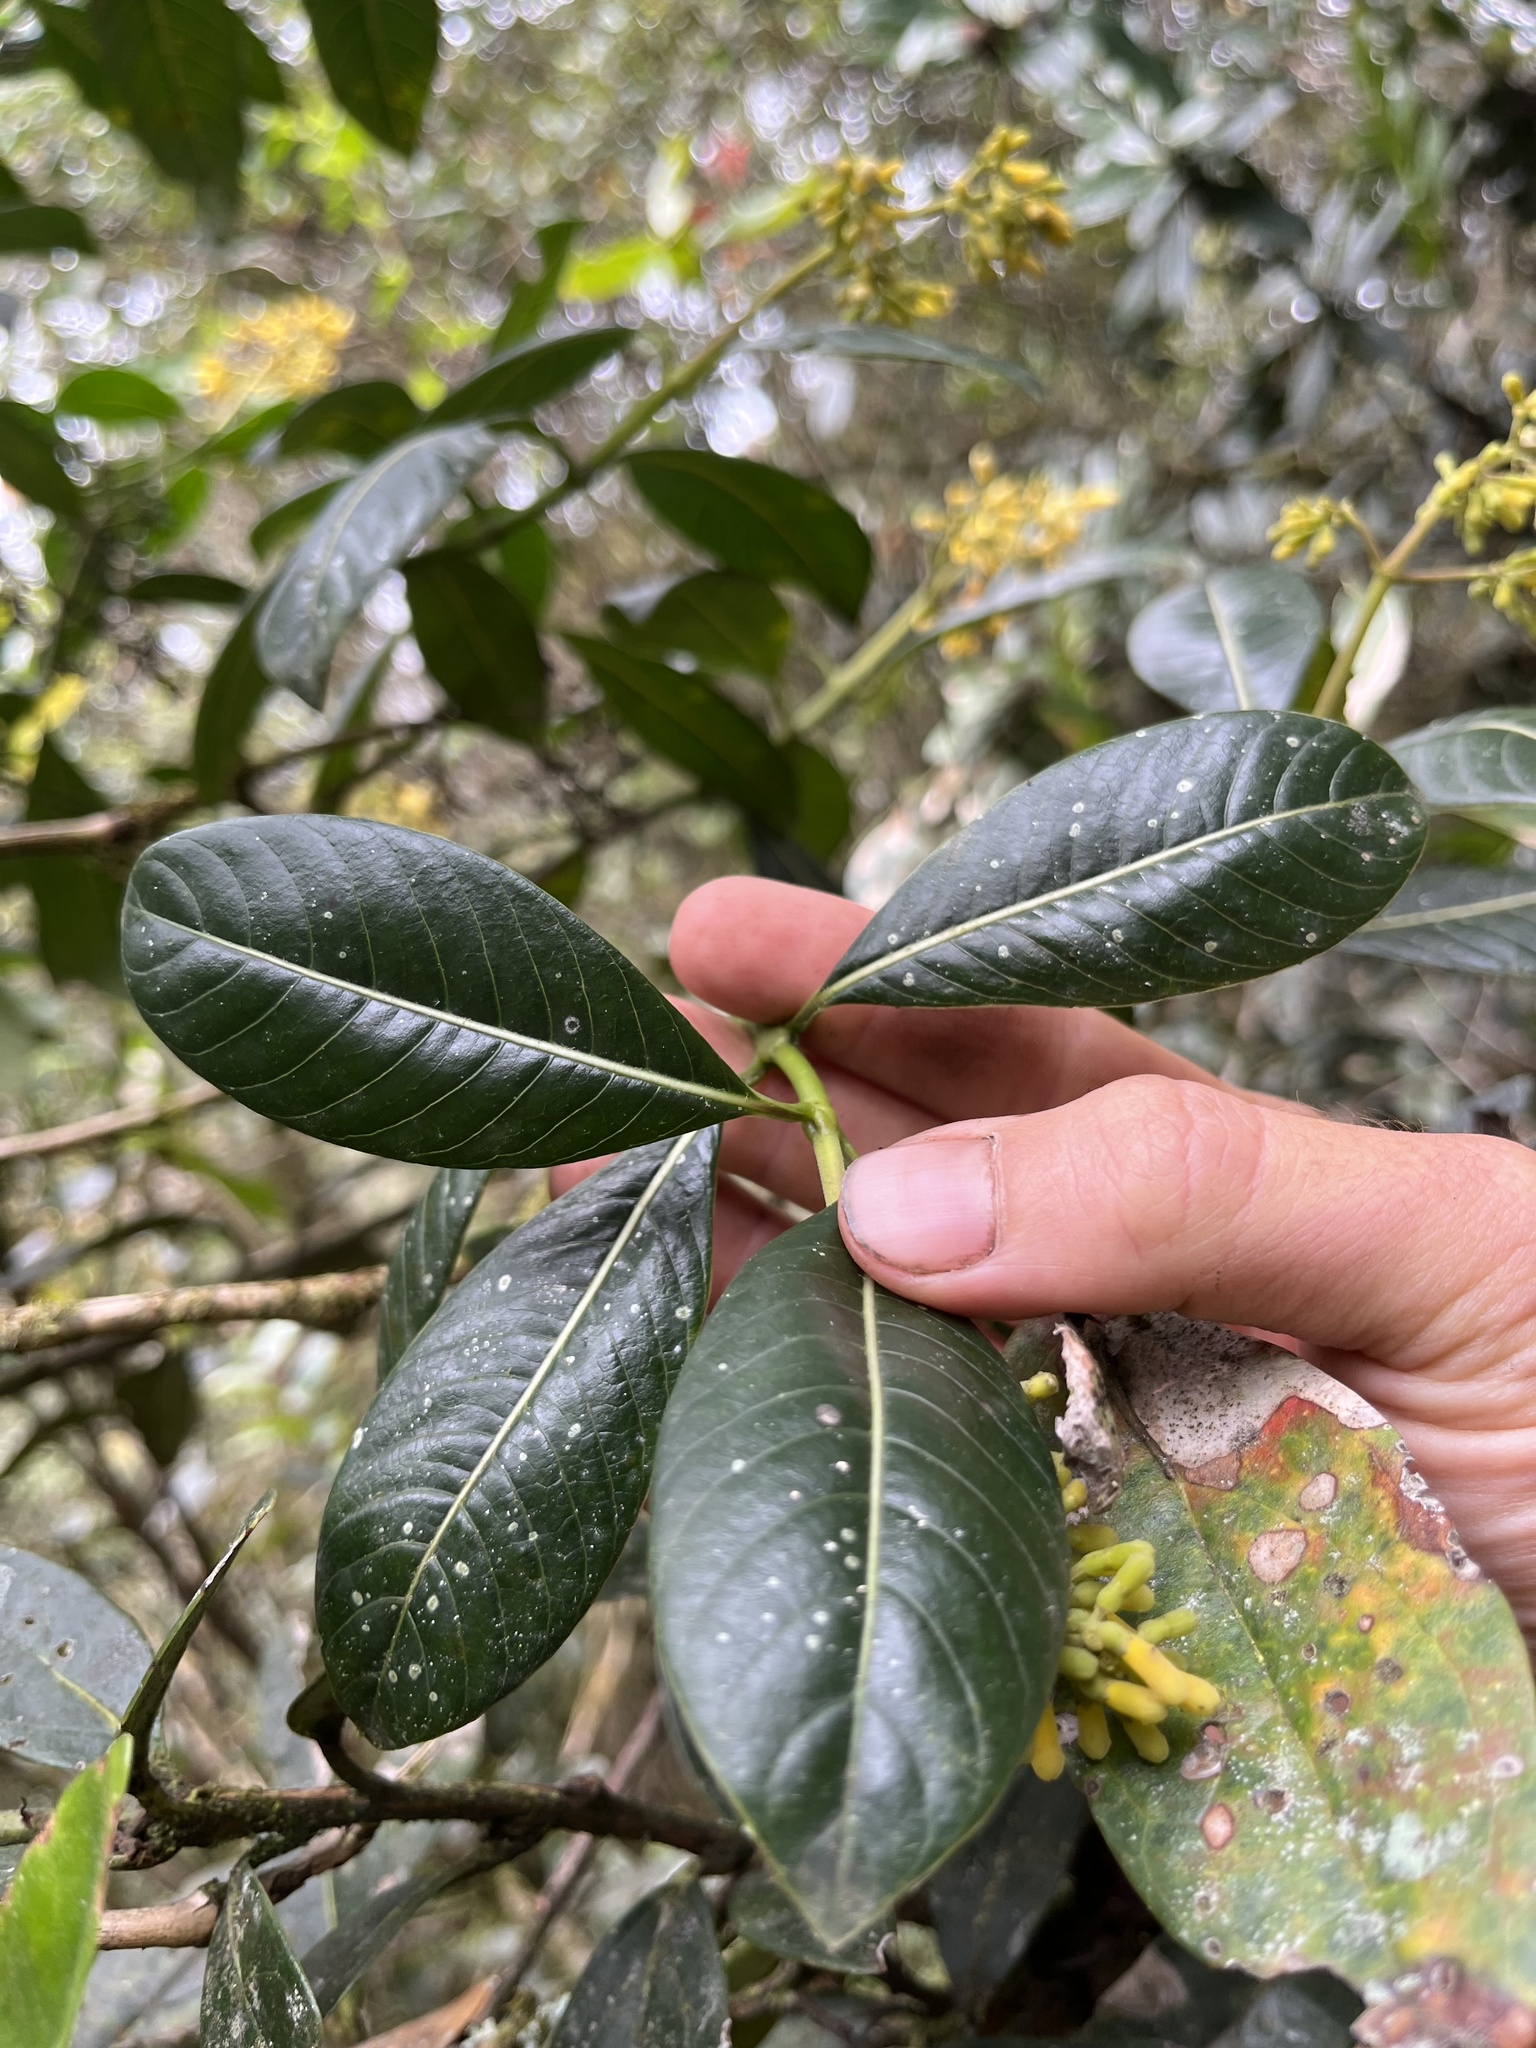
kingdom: Plantae
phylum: Tracheophyta
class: Magnoliopsida
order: Gentianales
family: Rubiaceae
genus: Palicourea
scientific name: Palicourea sulphurea
